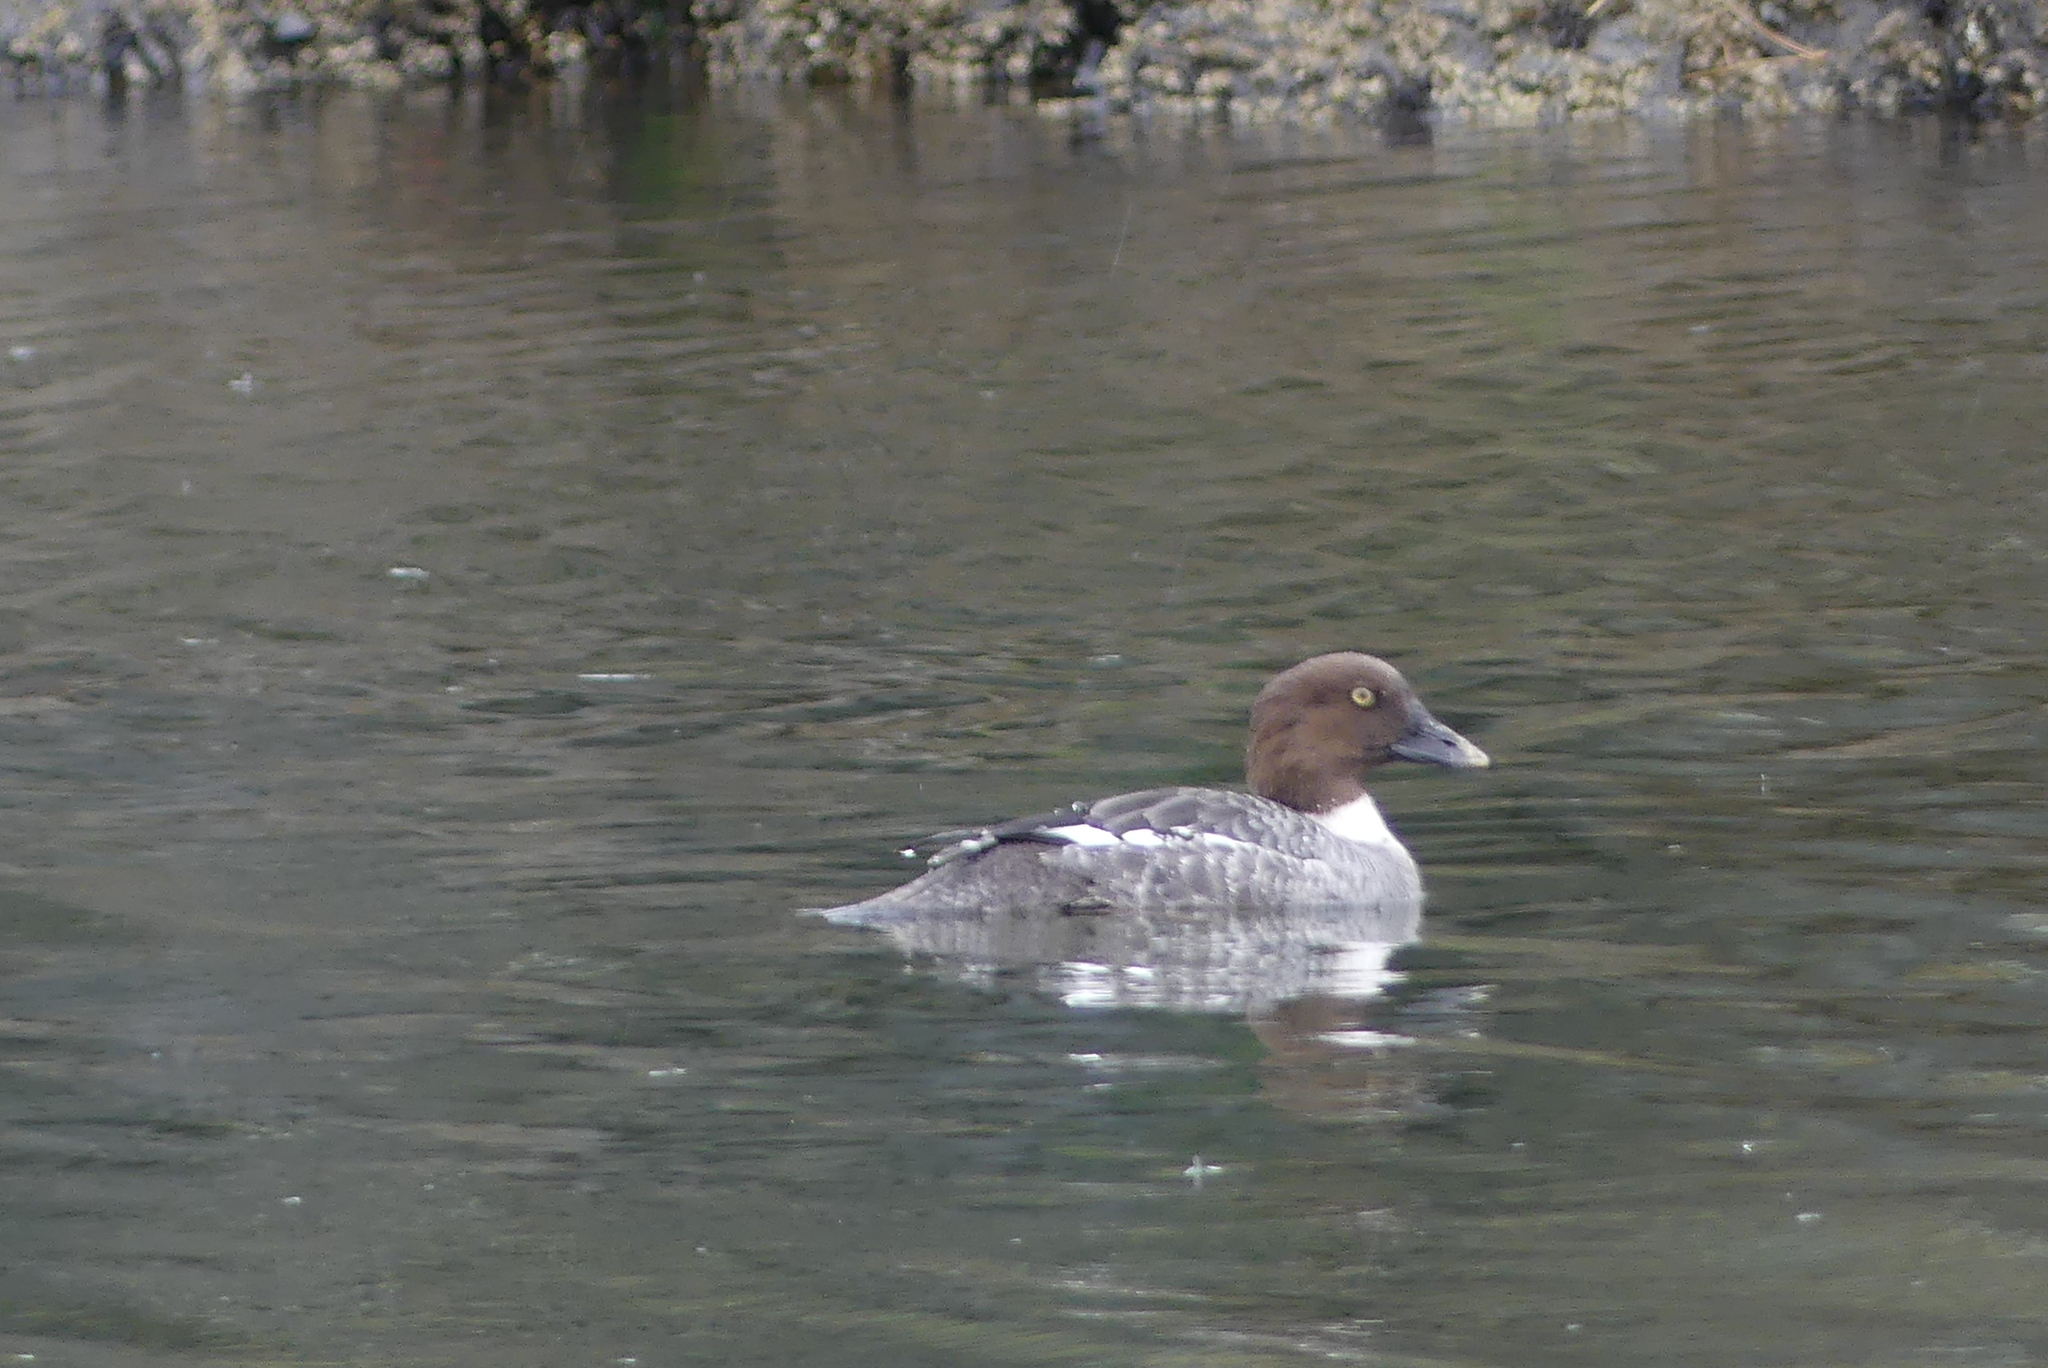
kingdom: Animalia
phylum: Chordata
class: Aves
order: Anseriformes
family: Anatidae
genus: Bucephala
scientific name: Bucephala clangula
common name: Common goldeneye
